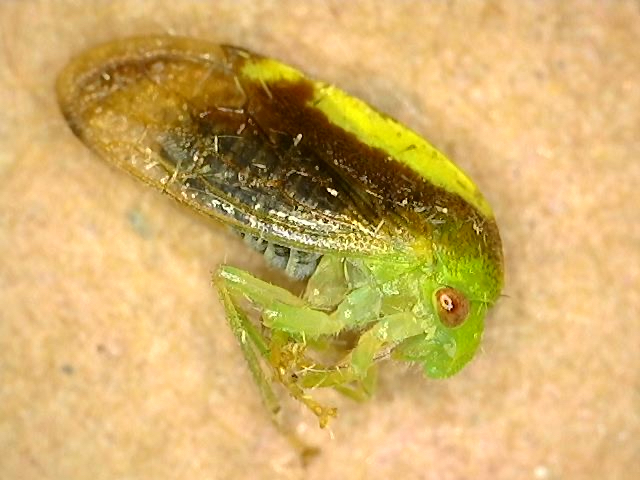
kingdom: Animalia
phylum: Arthropoda
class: Insecta
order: Hemiptera
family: Membracidae
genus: Atymna
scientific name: Atymna querci
